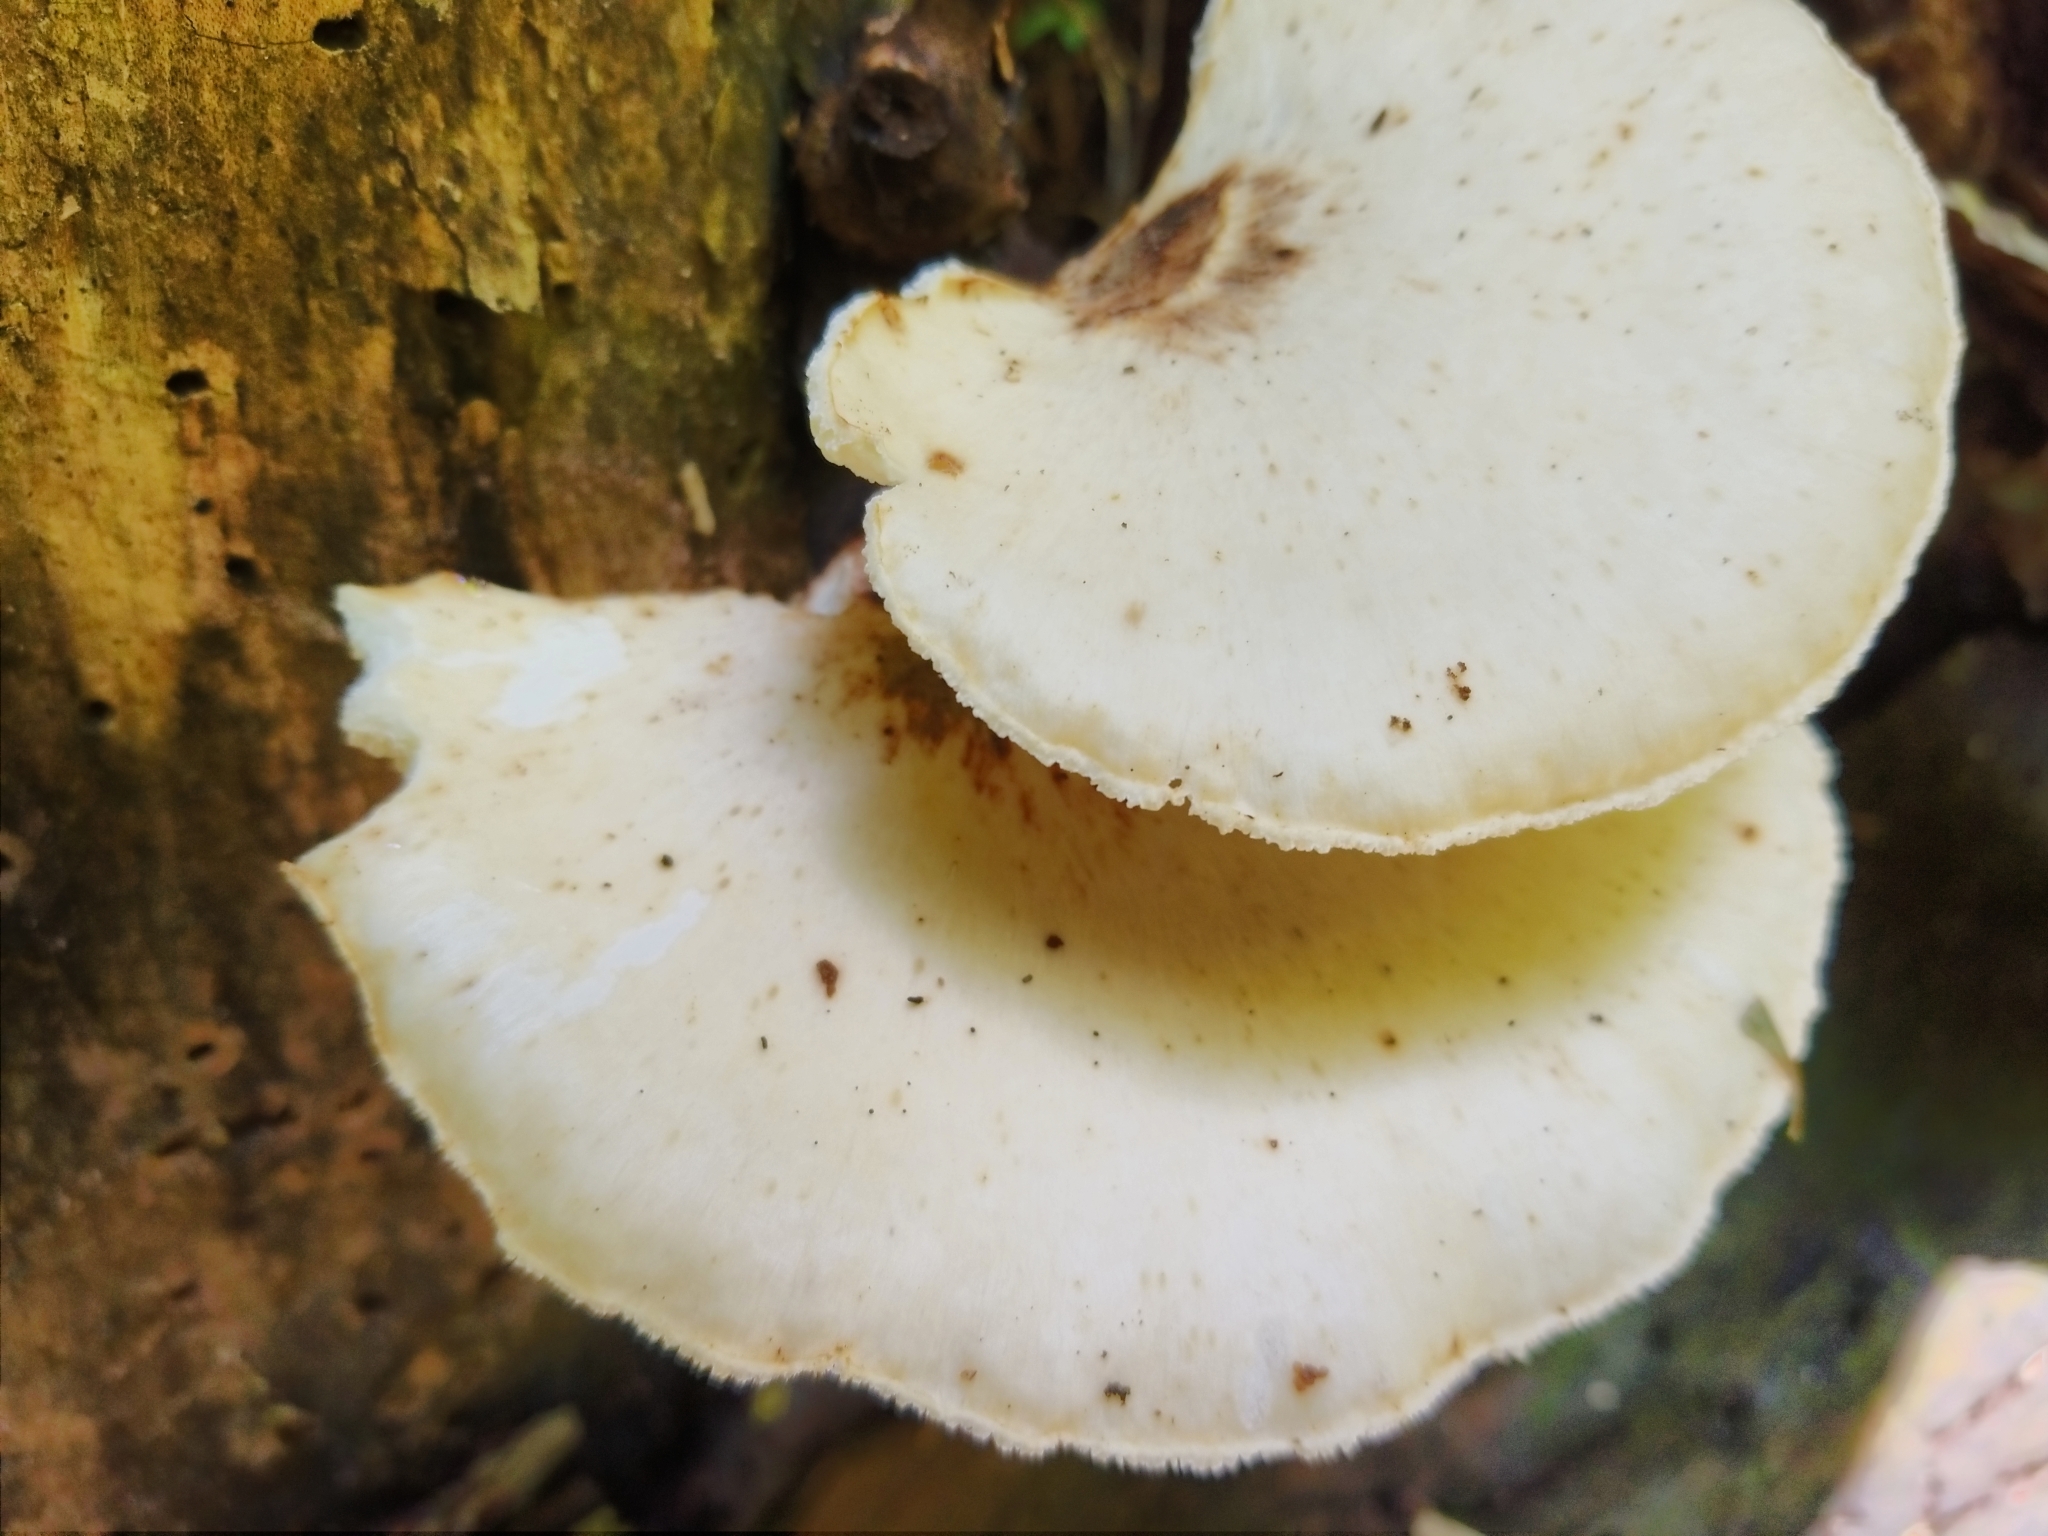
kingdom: Fungi
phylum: Basidiomycota
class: Agaricomycetes
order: Polyporales
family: Polyporaceae
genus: Cerioporus
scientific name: Cerioporus squamosus
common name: Dryad's saddle
